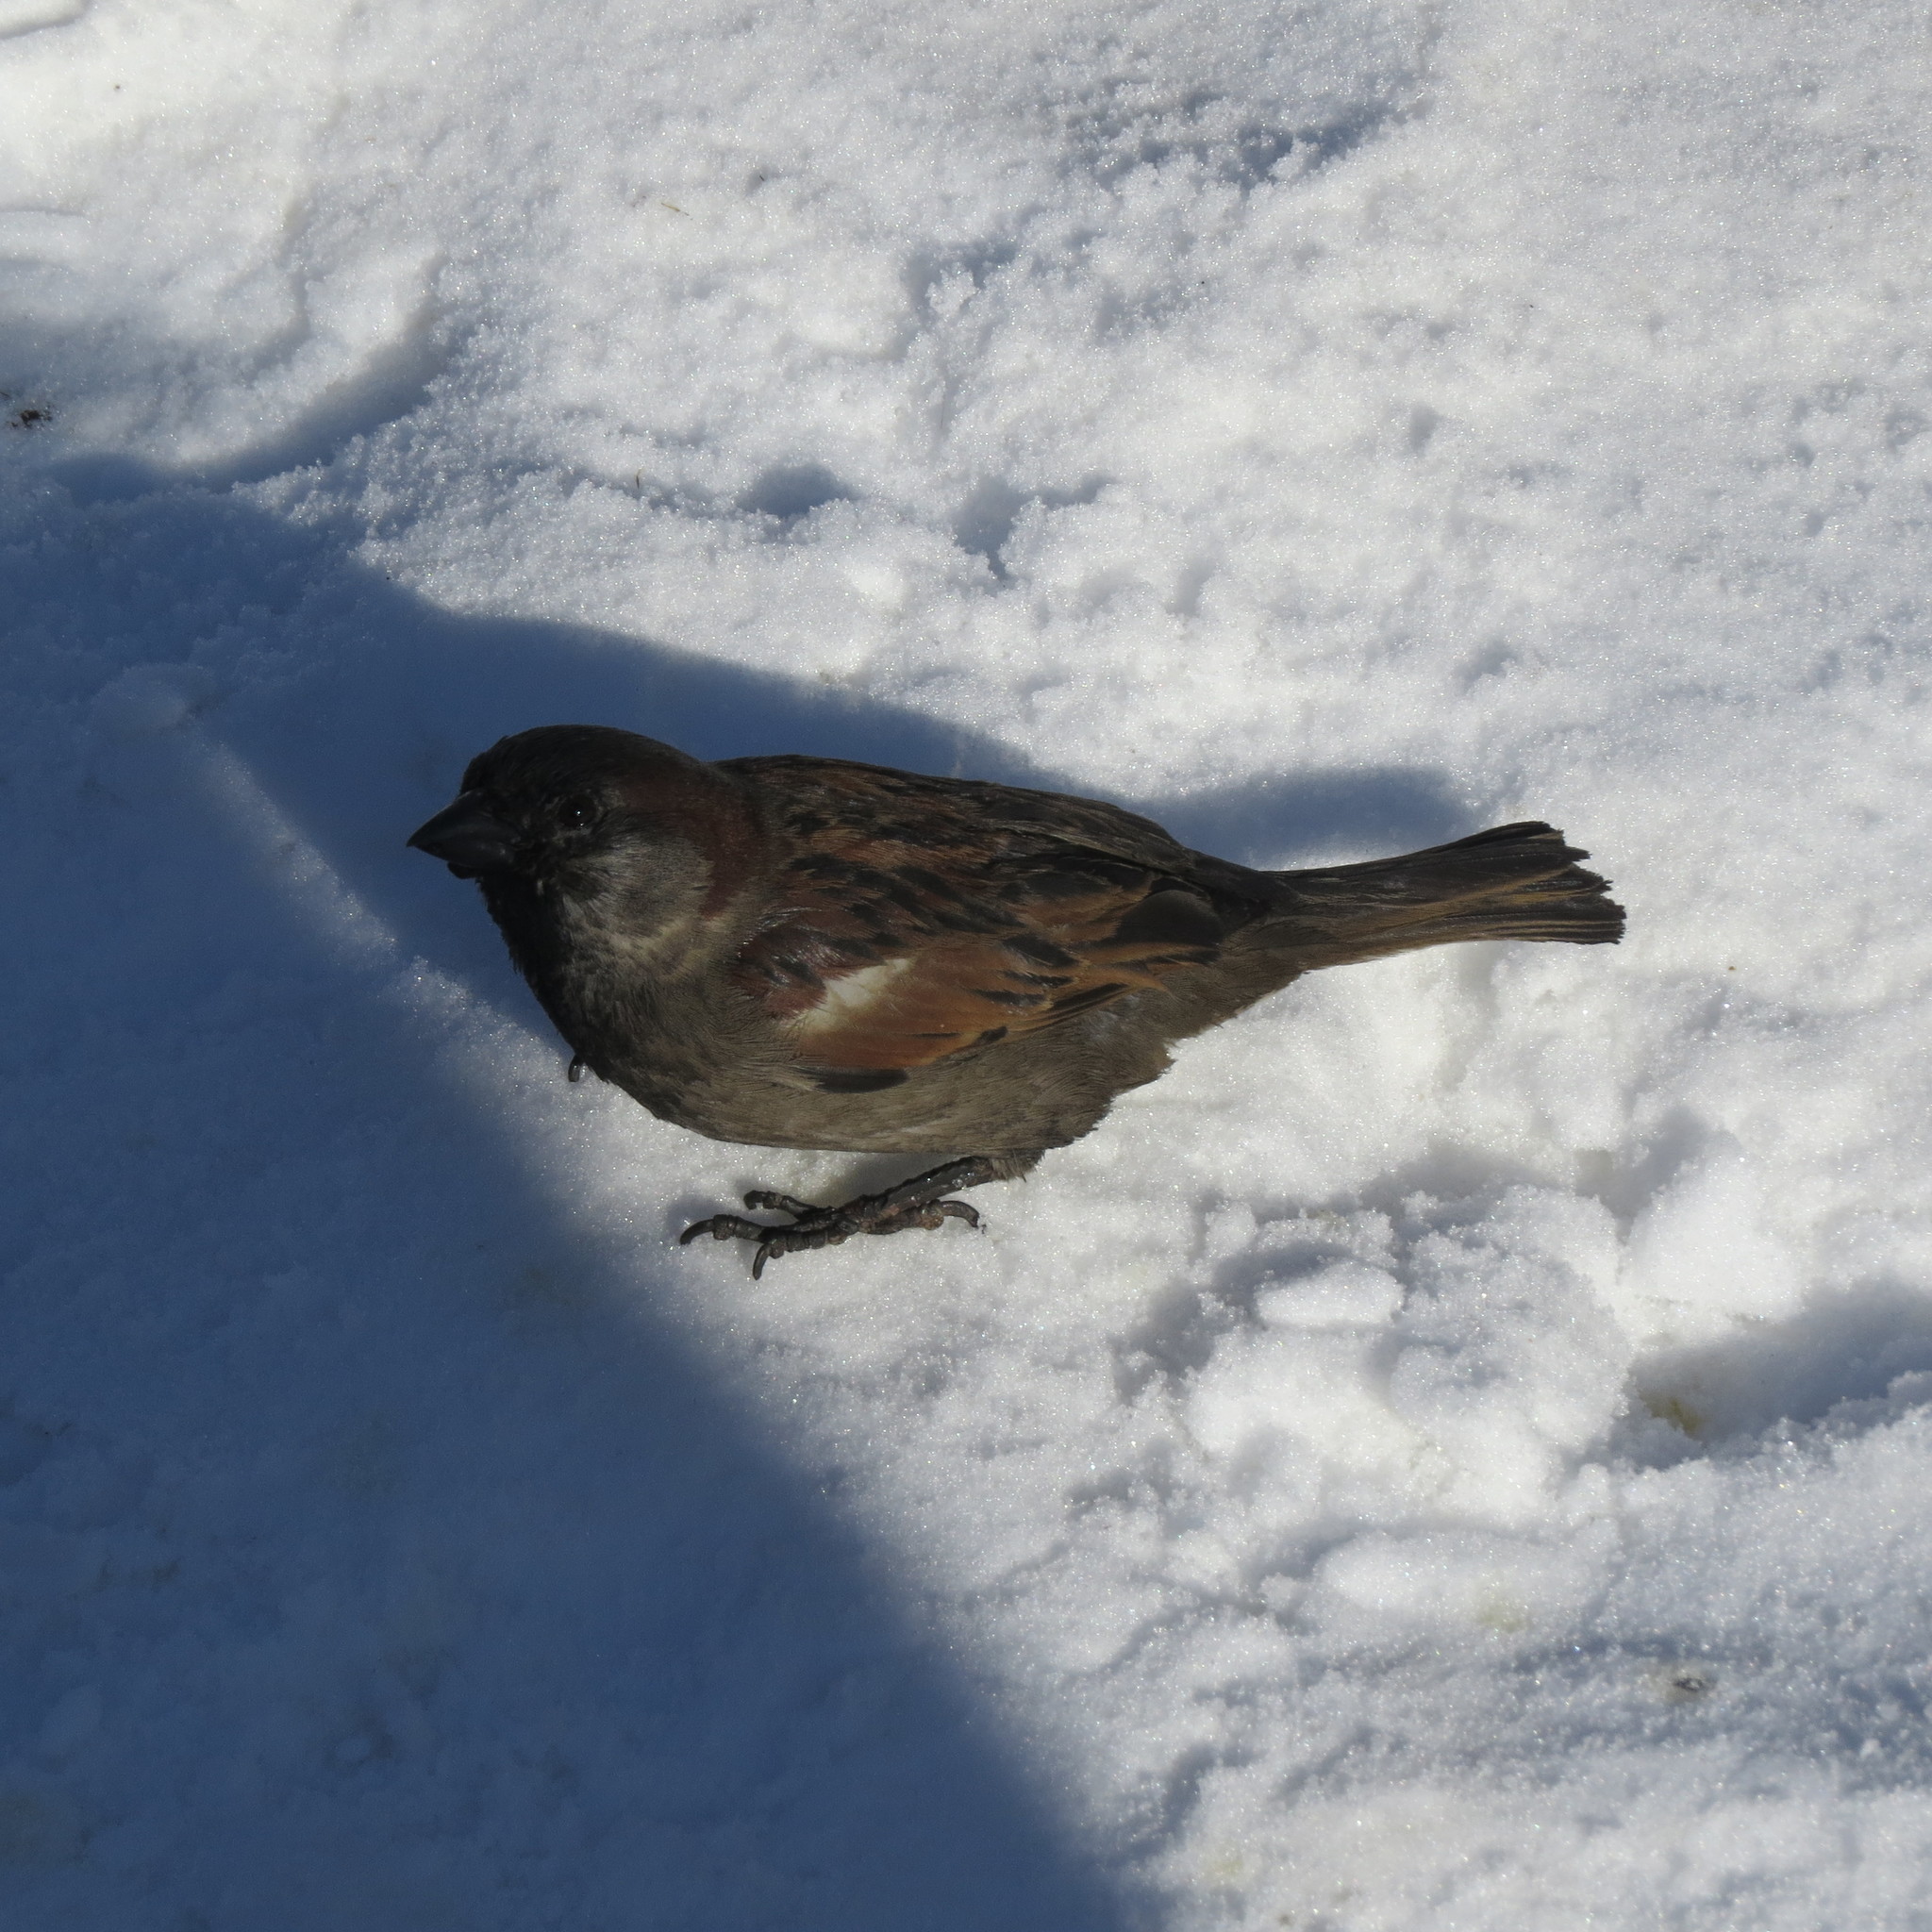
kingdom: Animalia
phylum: Chordata
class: Aves
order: Passeriformes
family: Passeridae
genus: Passer
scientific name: Passer domesticus
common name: House sparrow
